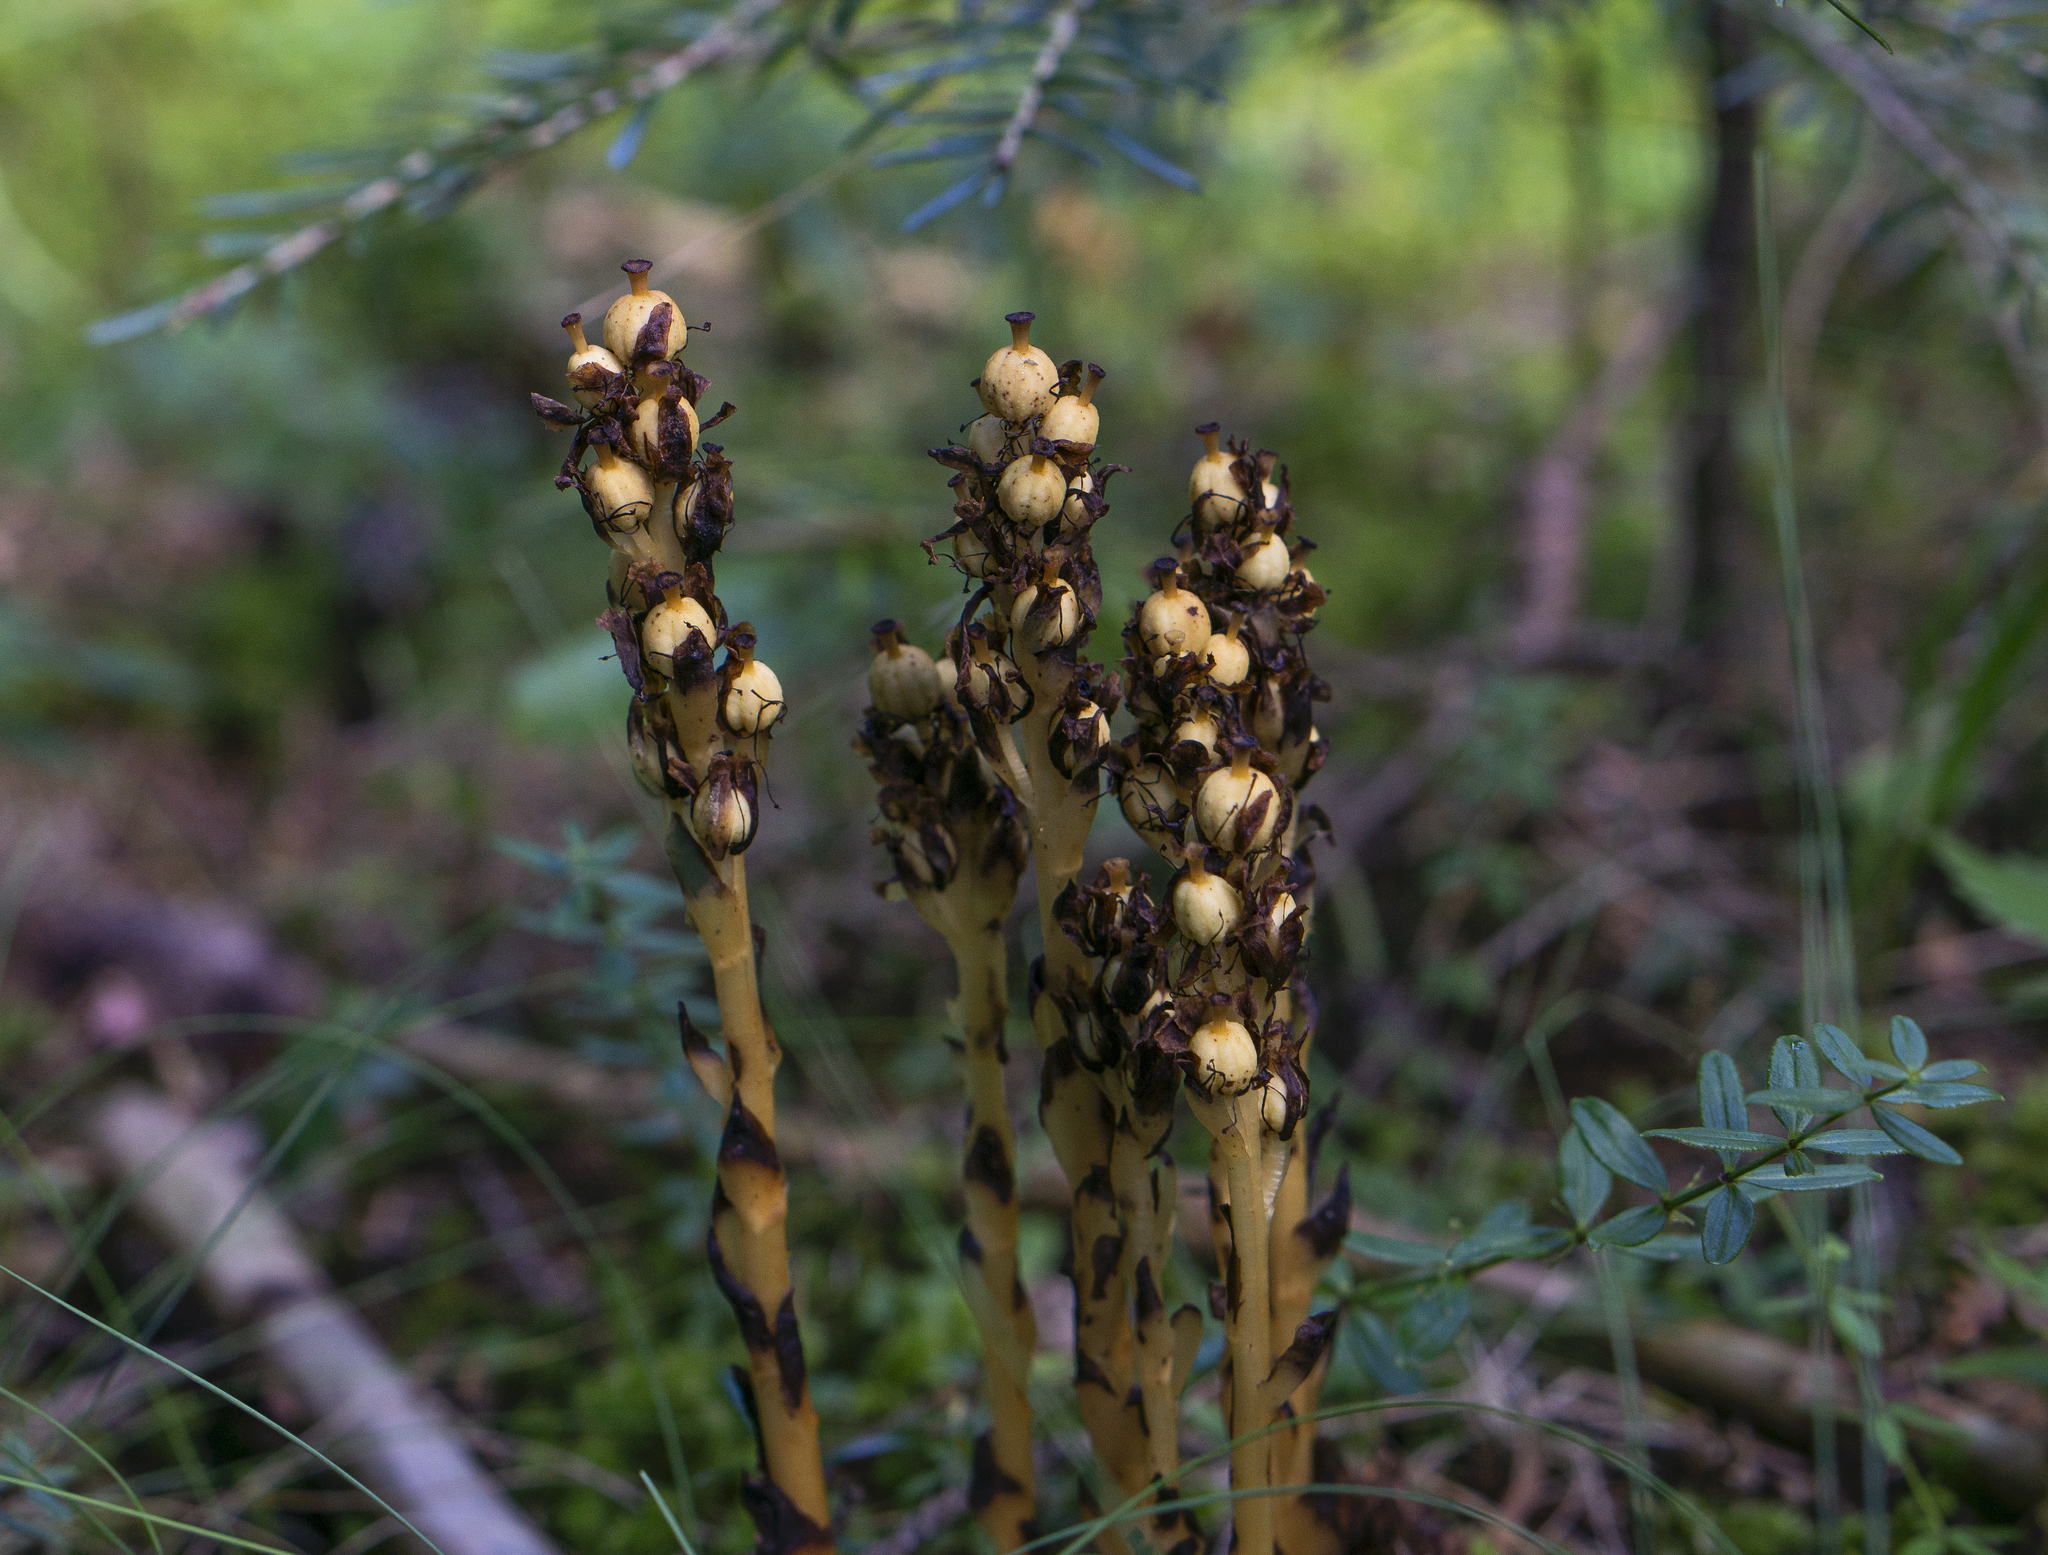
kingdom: Plantae
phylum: Tracheophyta
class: Magnoliopsida
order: Ericales
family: Ericaceae
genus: Hypopitys
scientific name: Hypopitys monotropa
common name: Yellow bird's-nest
